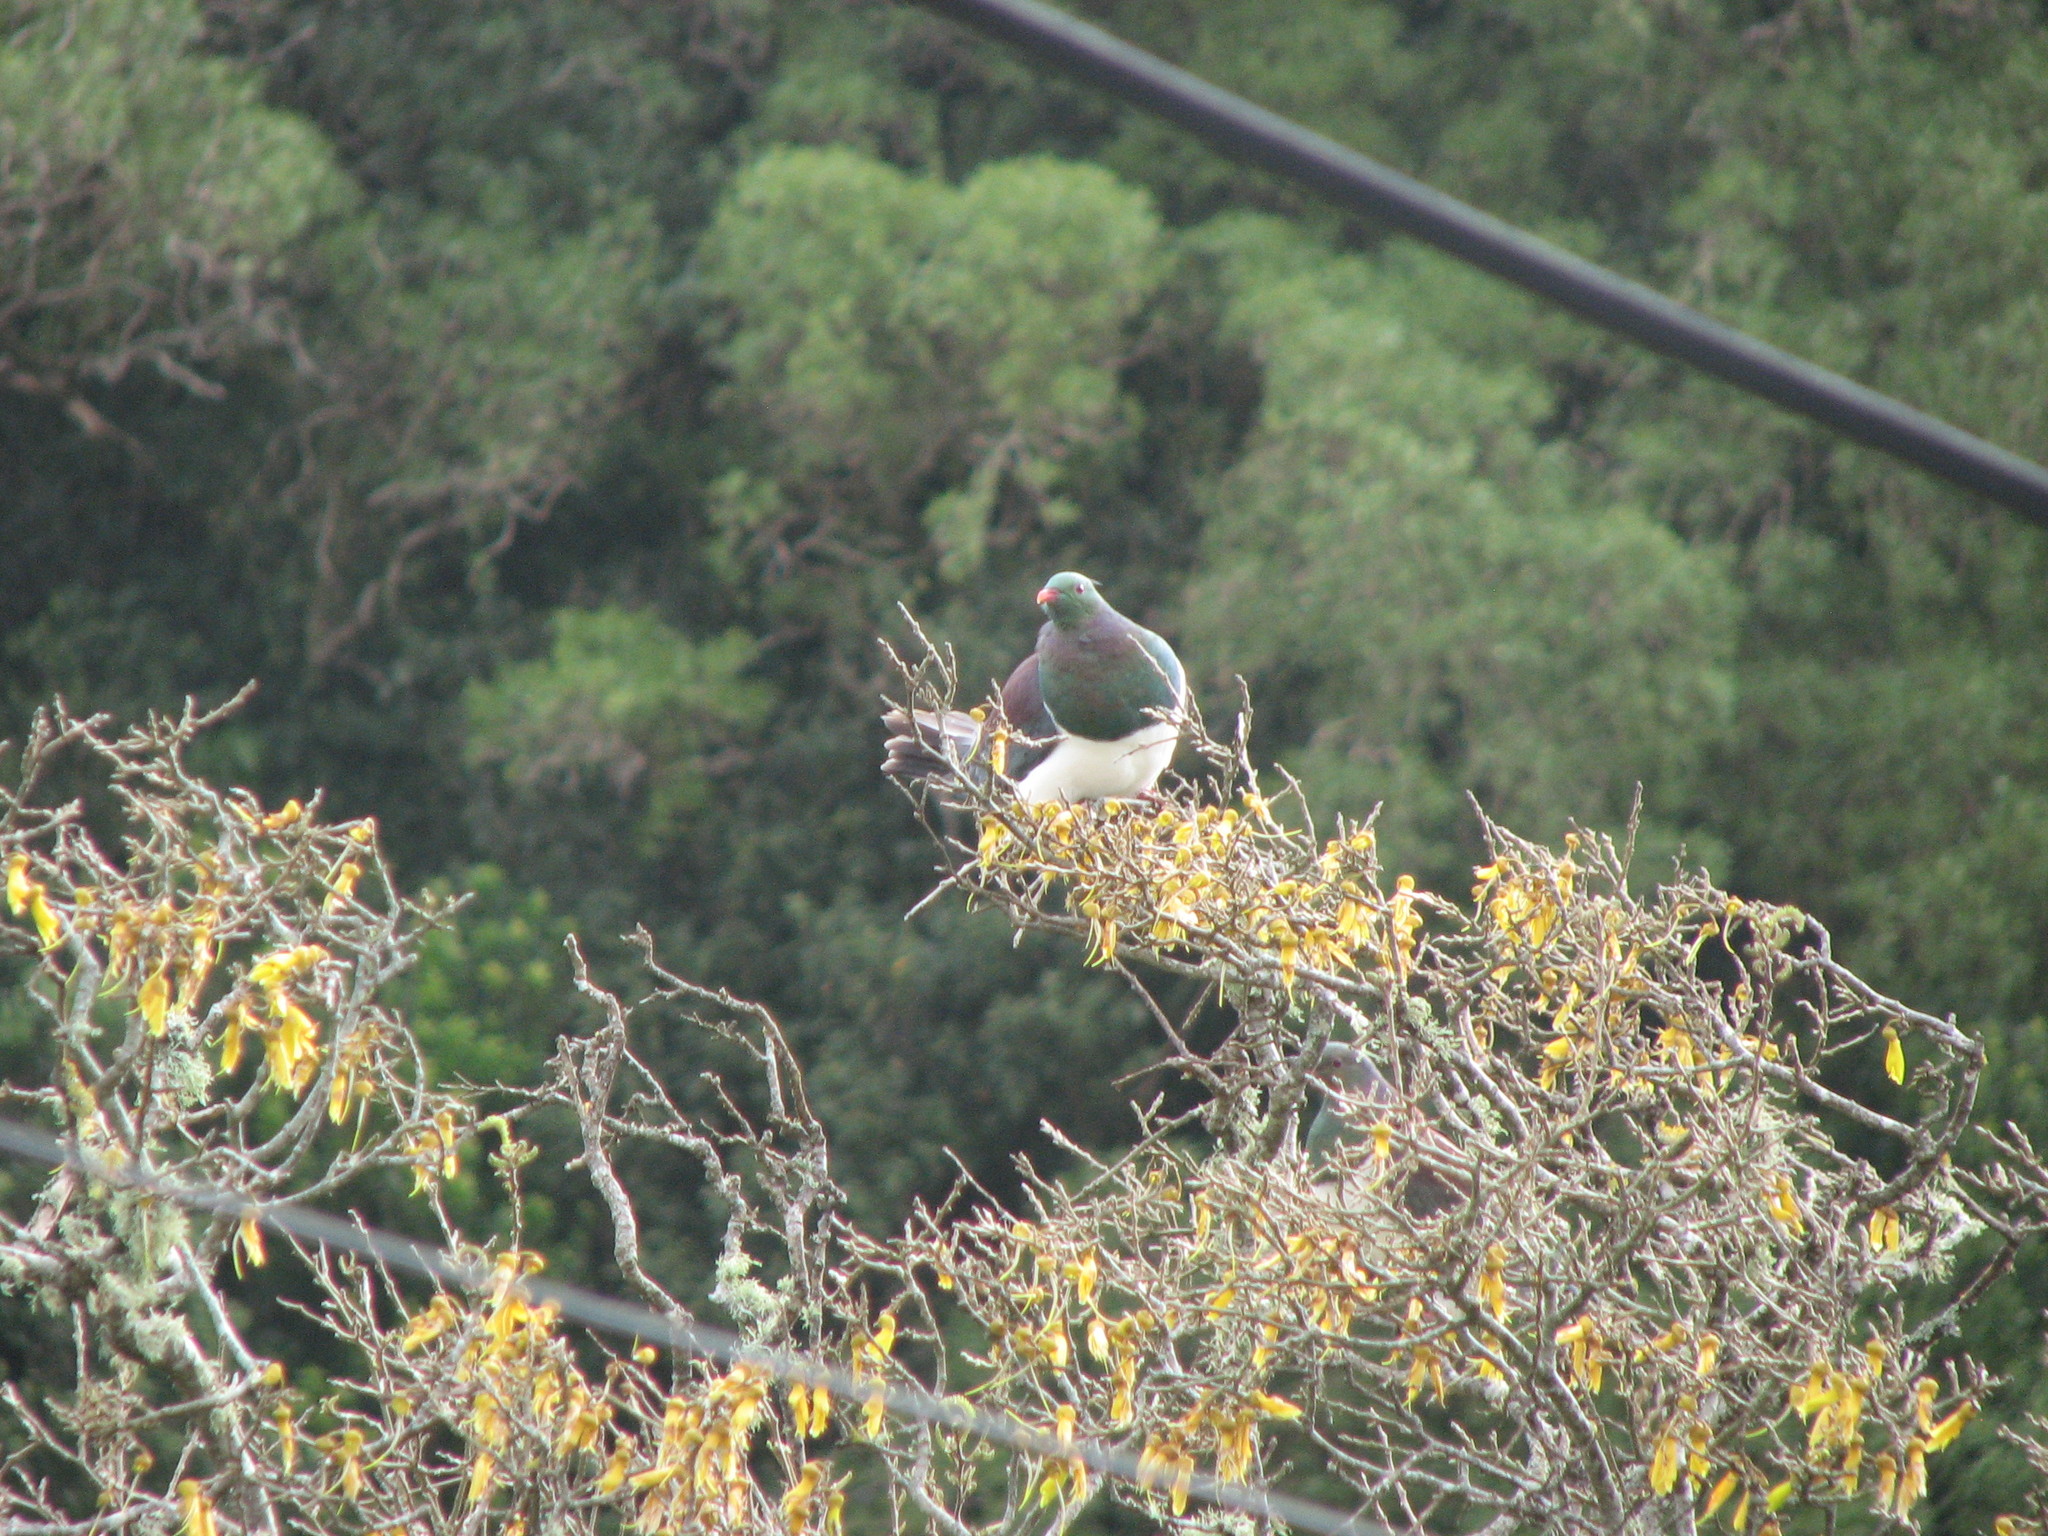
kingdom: Animalia
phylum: Chordata
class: Aves
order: Columbiformes
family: Columbidae
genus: Hemiphaga
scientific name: Hemiphaga novaeseelandiae
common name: New zealand pigeon
